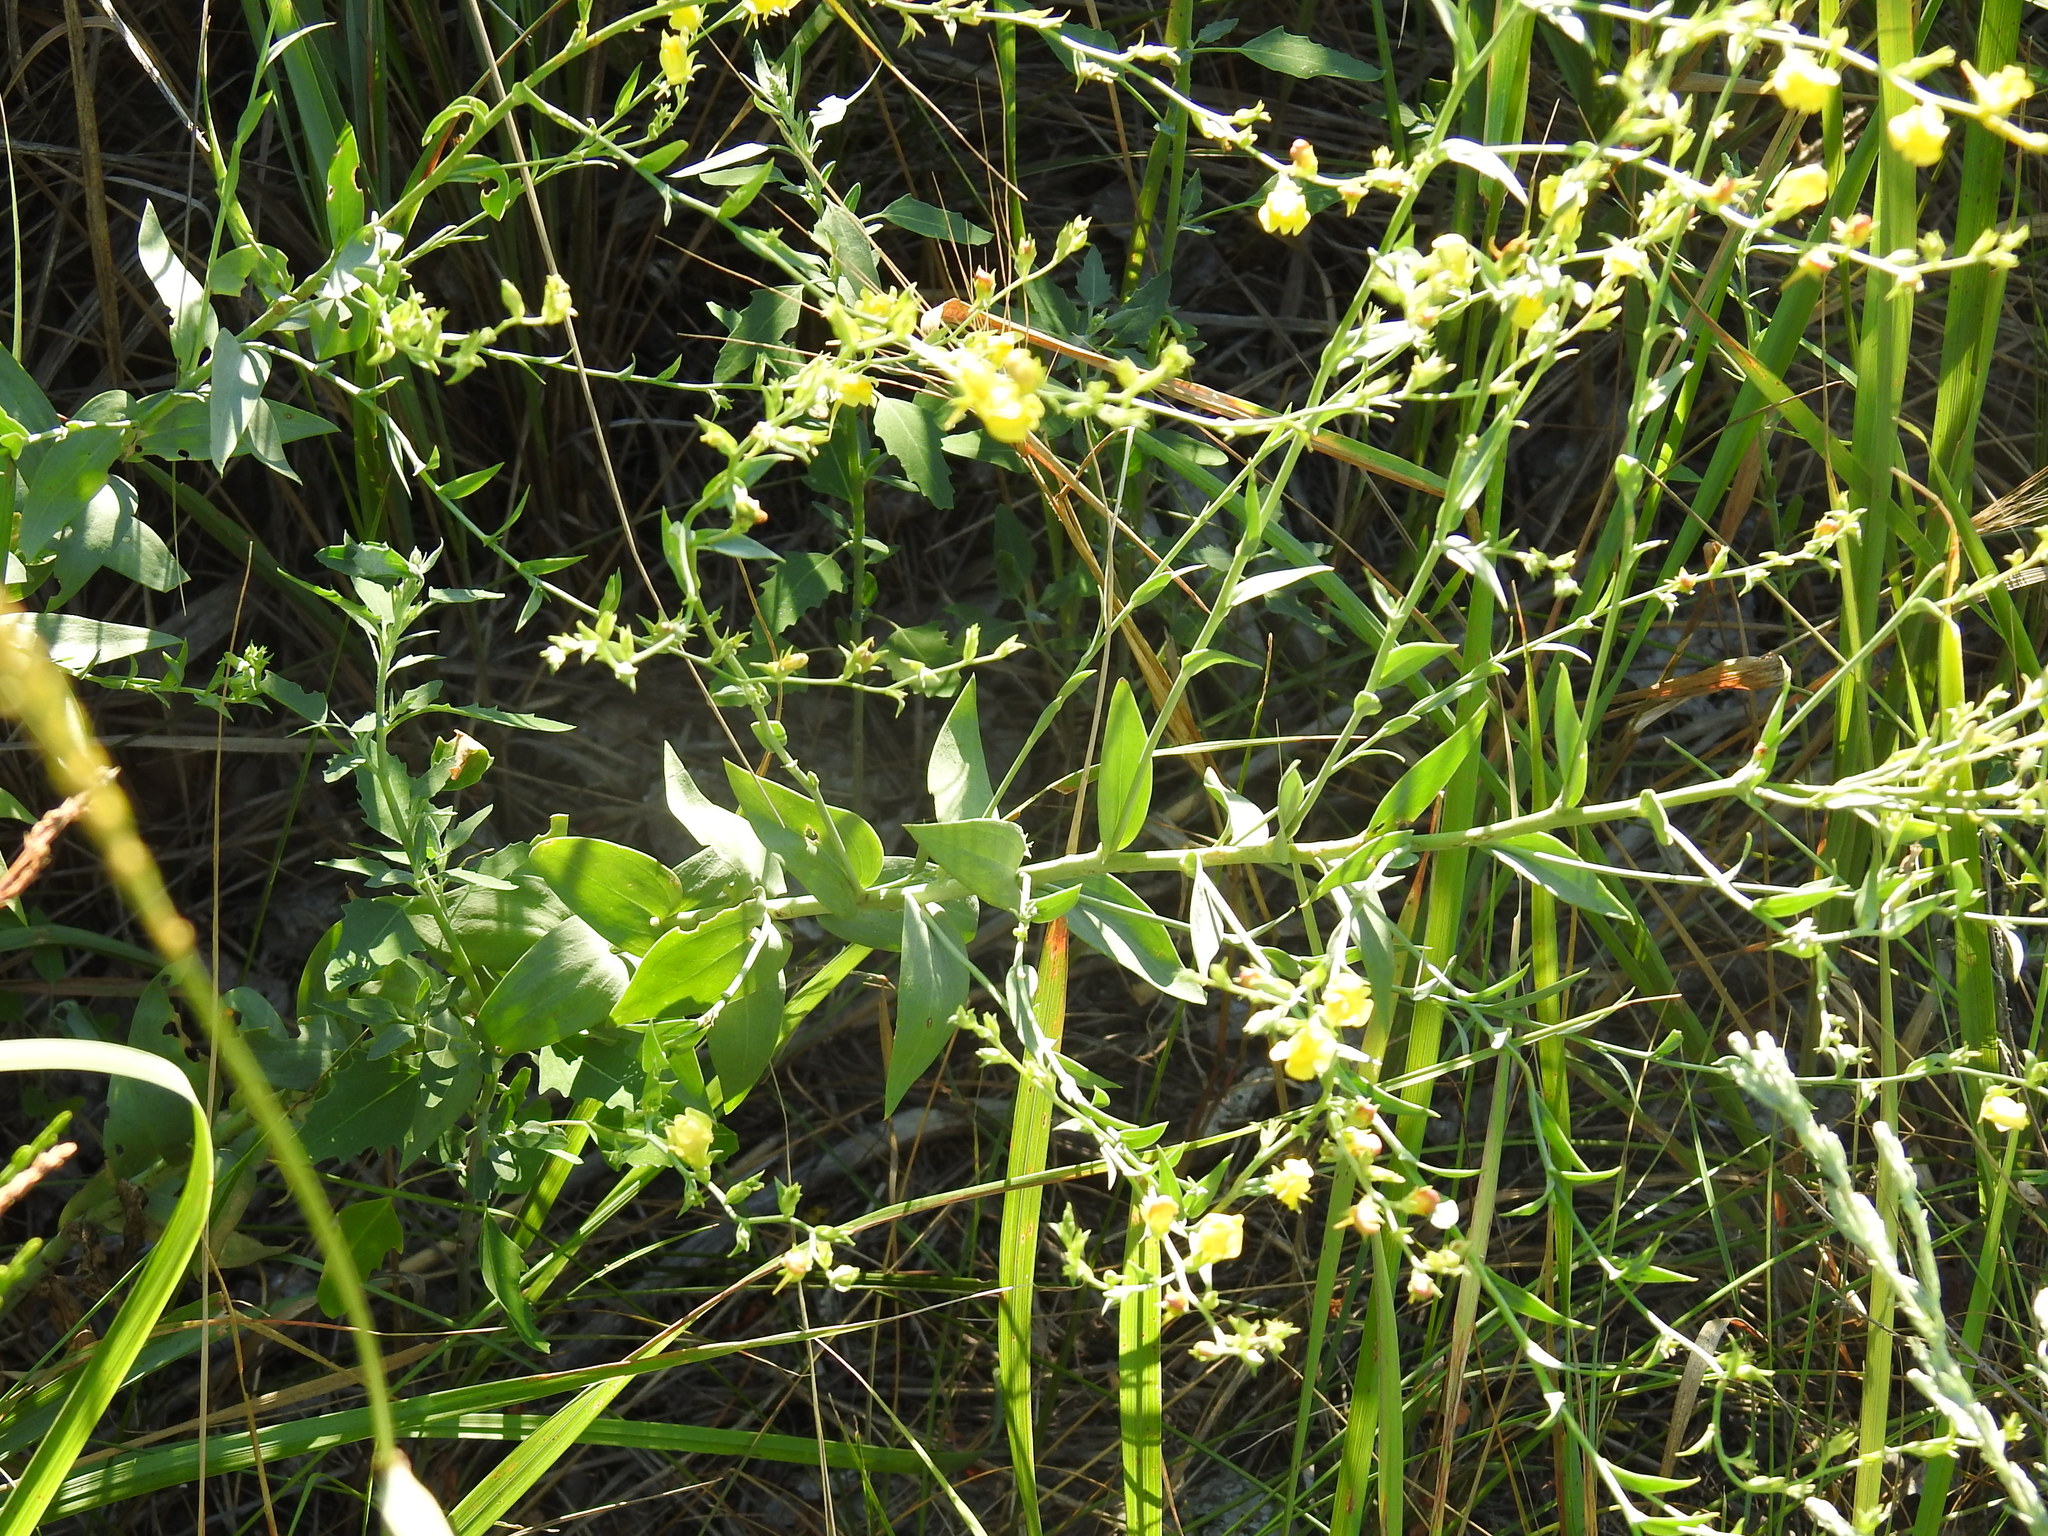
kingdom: Plantae
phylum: Tracheophyta
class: Magnoliopsida
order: Lamiales
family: Plantaginaceae
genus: Linaria
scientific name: Linaria genistifolia
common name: Broomleaf toadflax
